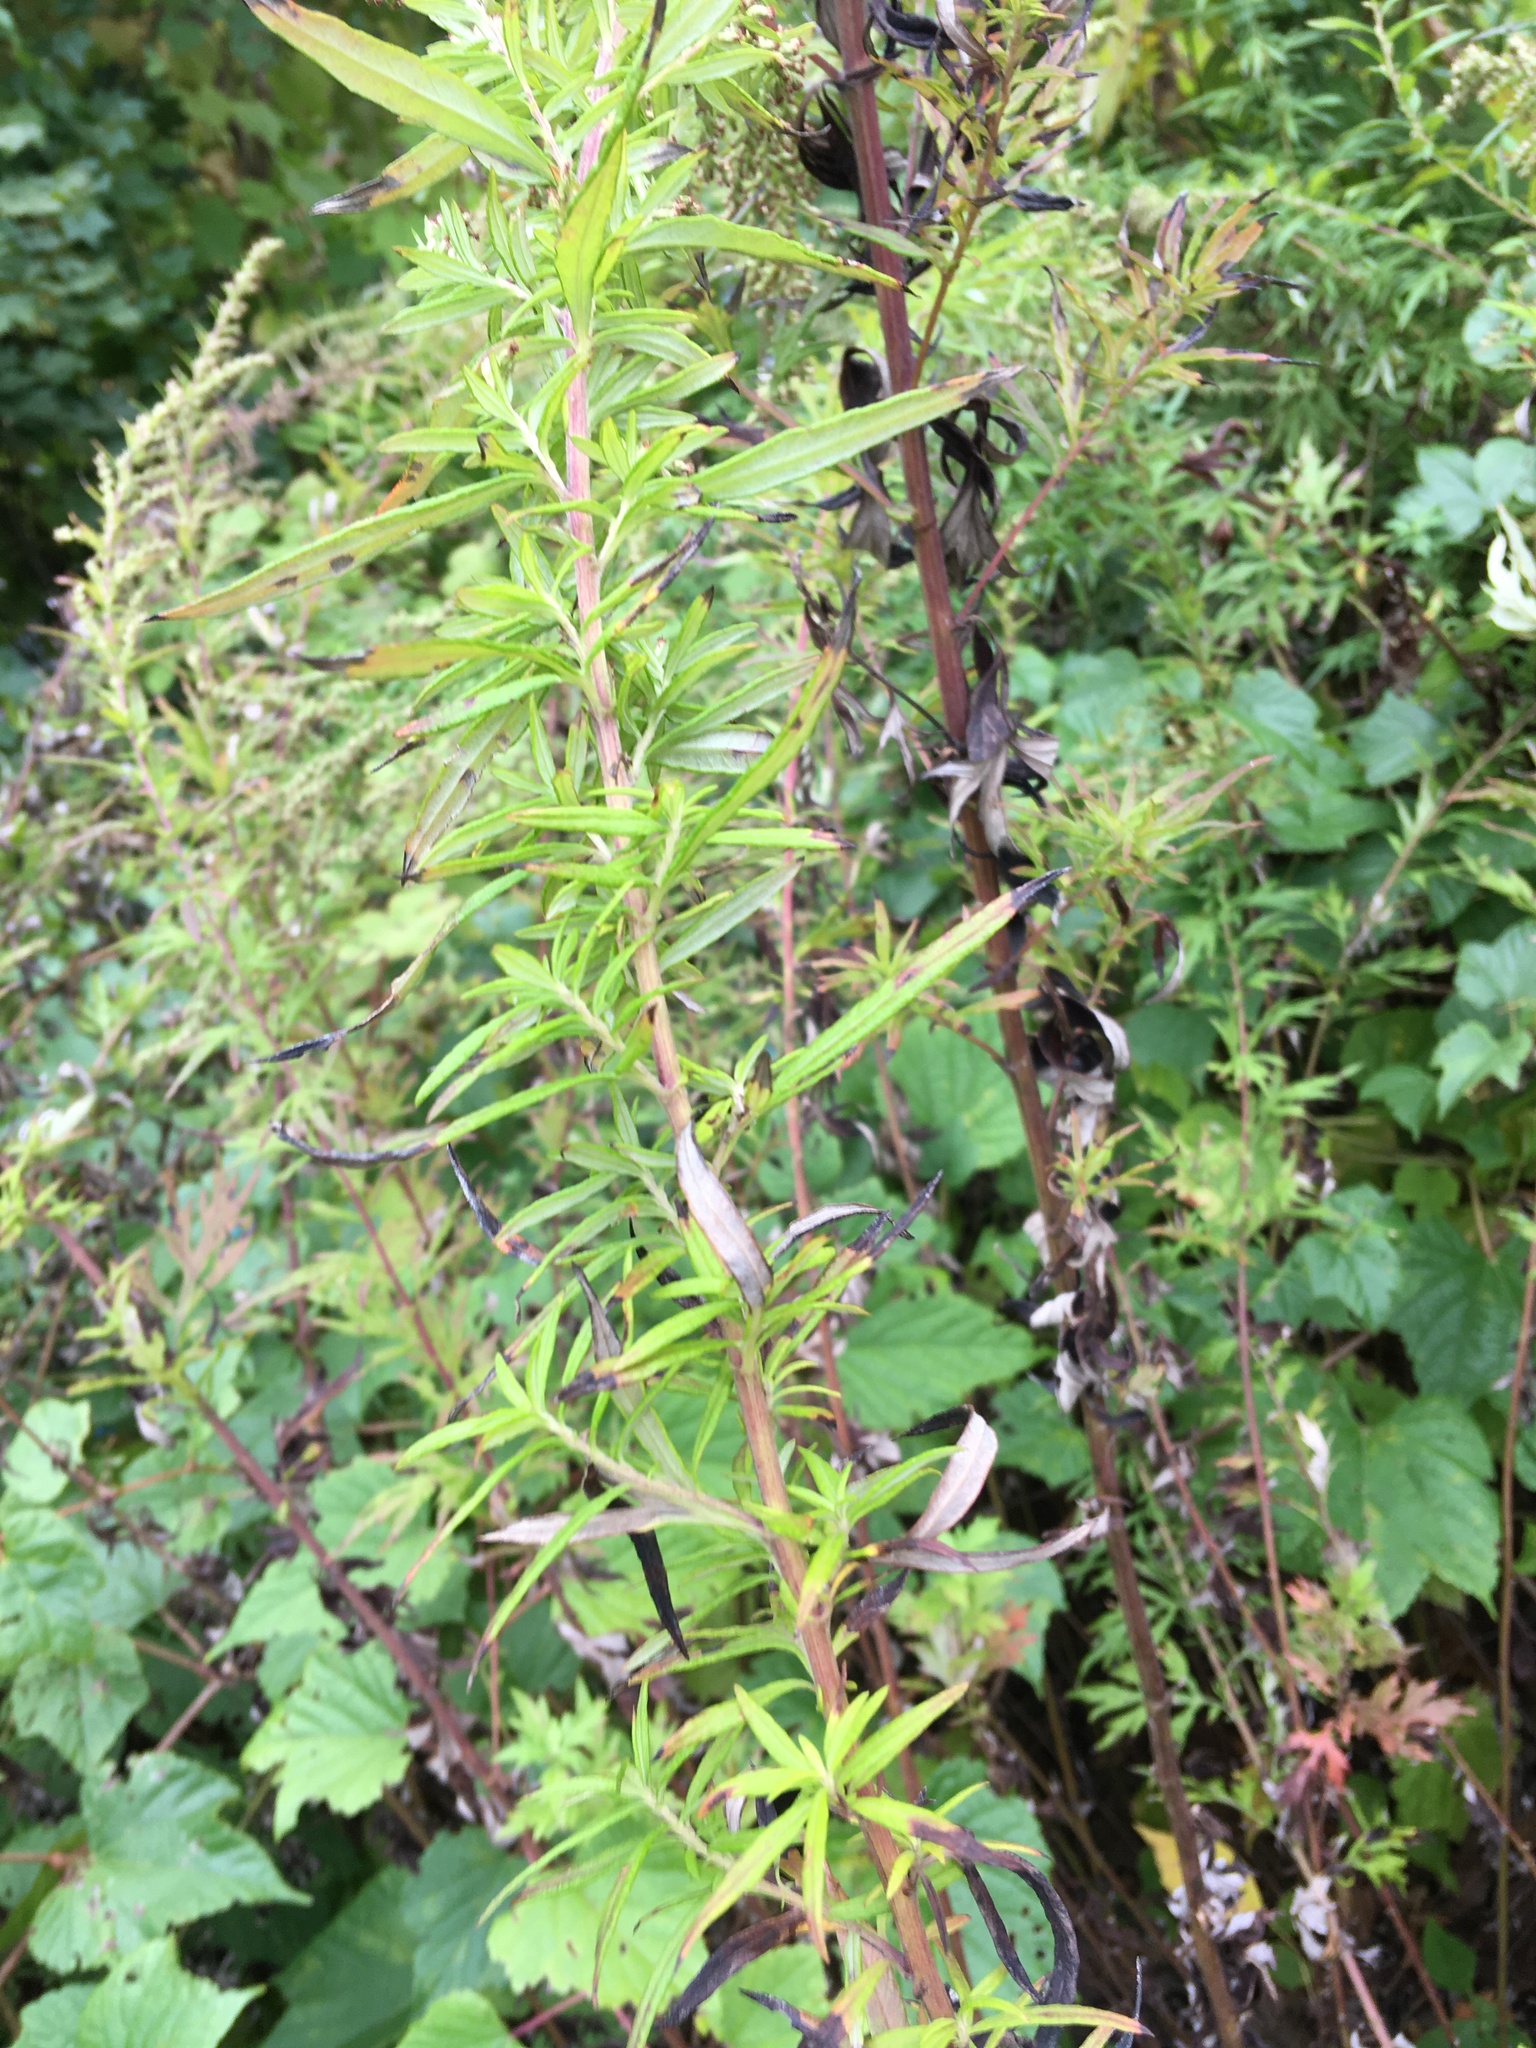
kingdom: Plantae
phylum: Tracheophyta
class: Magnoliopsida
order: Asterales
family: Asteraceae
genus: Artemisia
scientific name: Artemisia vulgaris
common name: Mugwort
